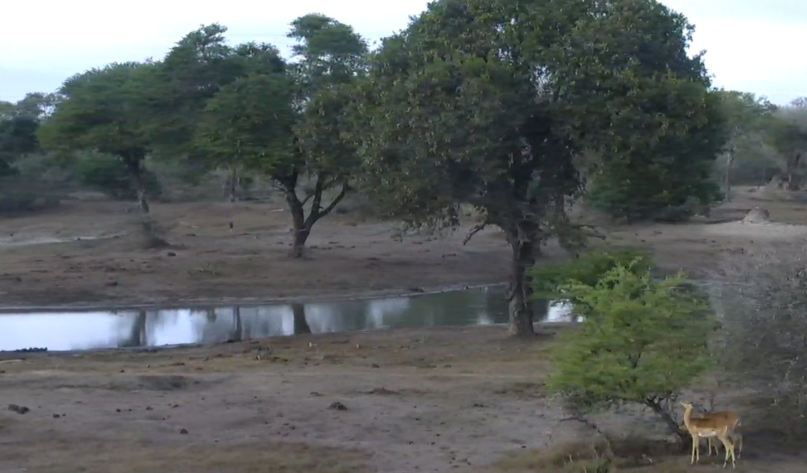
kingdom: Animalia
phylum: Chordata
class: Mammalia
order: Artiodactyla
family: Bovidae
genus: Aepyceros
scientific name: Aepyceros melampus
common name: Impala
